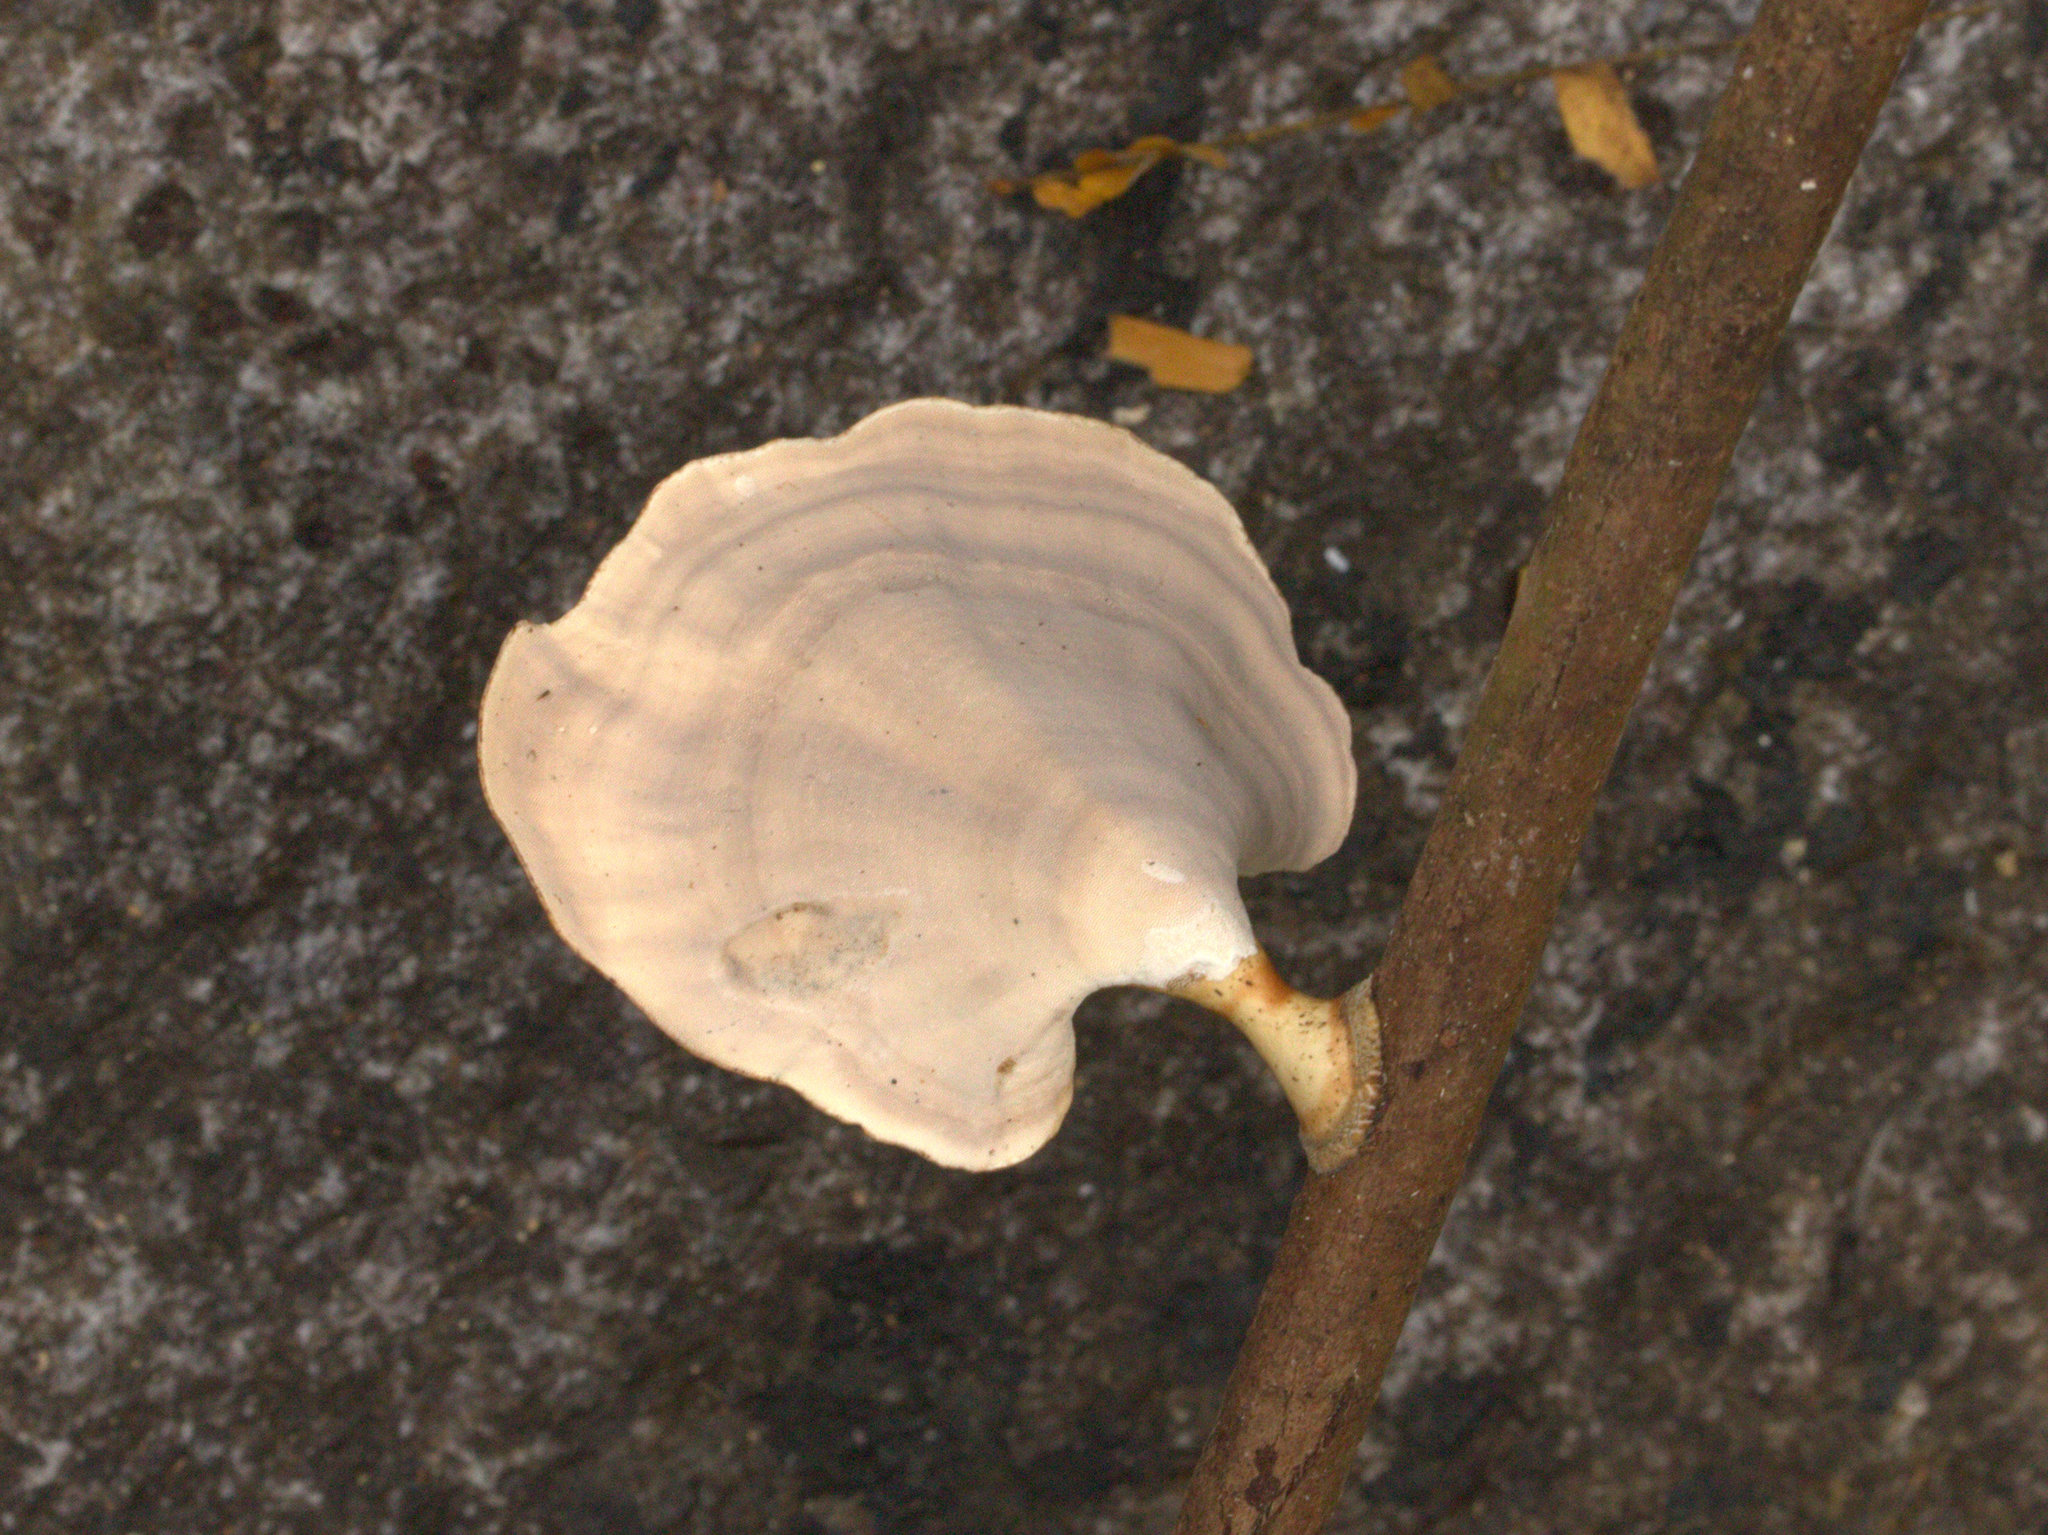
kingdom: Fungi
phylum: Basidiomycota
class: Agaricomycetes
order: Polyporales
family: Polyporaceae
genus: Microporus
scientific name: Microporus xanthopus
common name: Yellow-stemmed micropore
